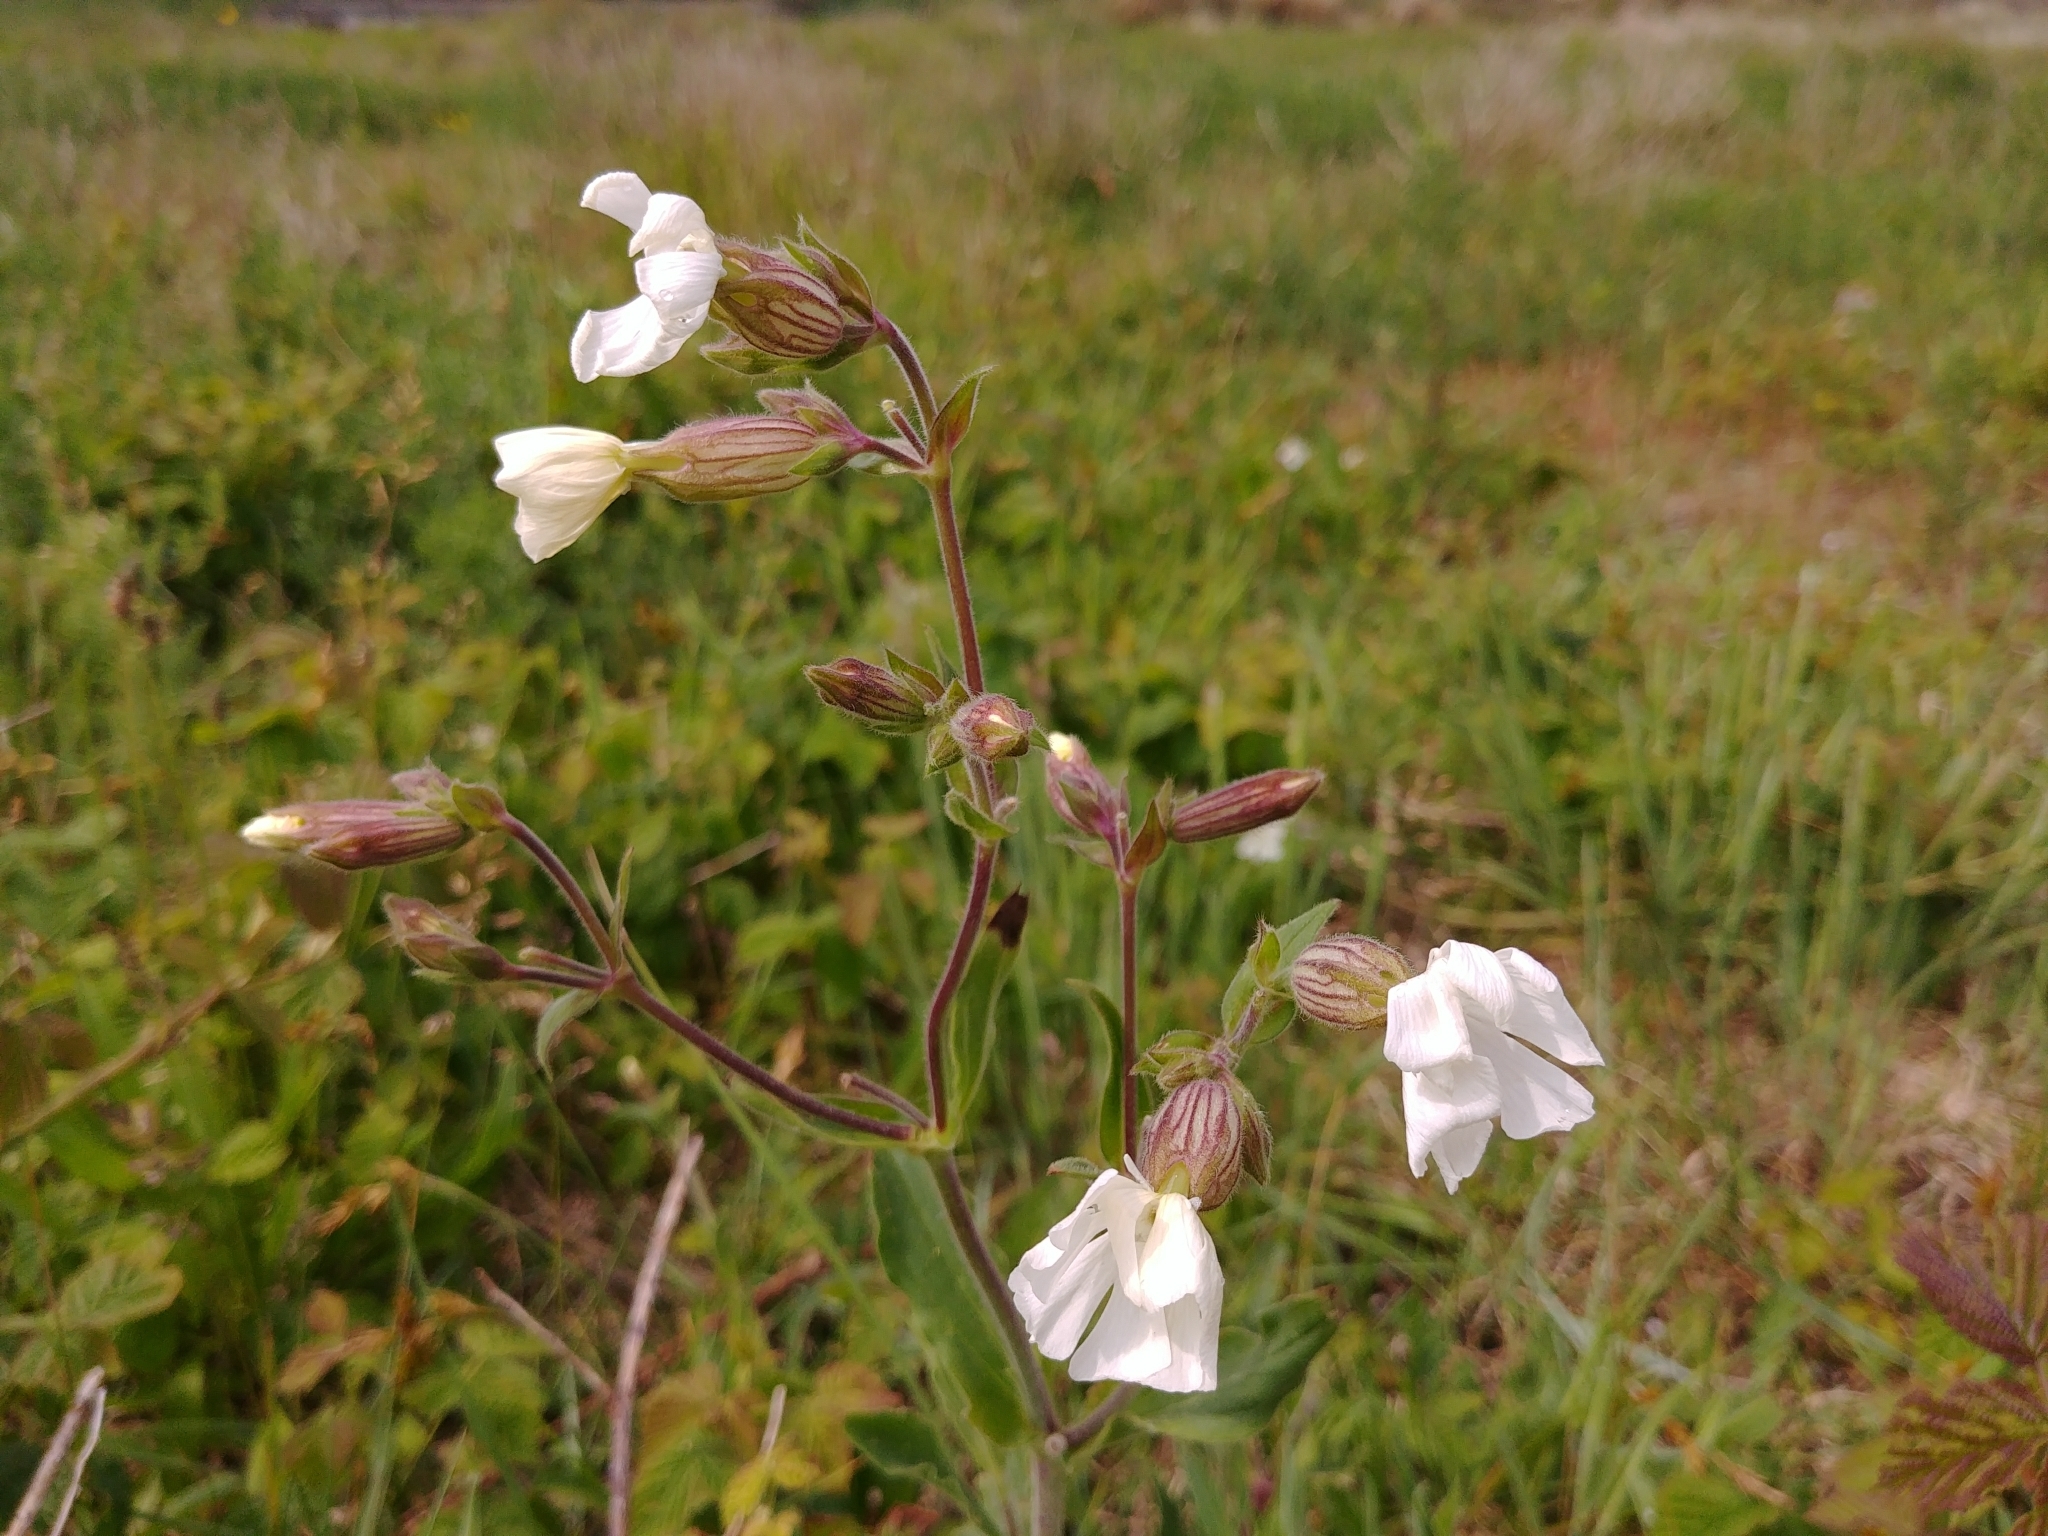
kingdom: Plantae
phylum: Tracheophyta
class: Magnoliopsida
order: Caryophyllales
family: Caryophyllaceae
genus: Silene
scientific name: Silene latifolia
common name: White campion
